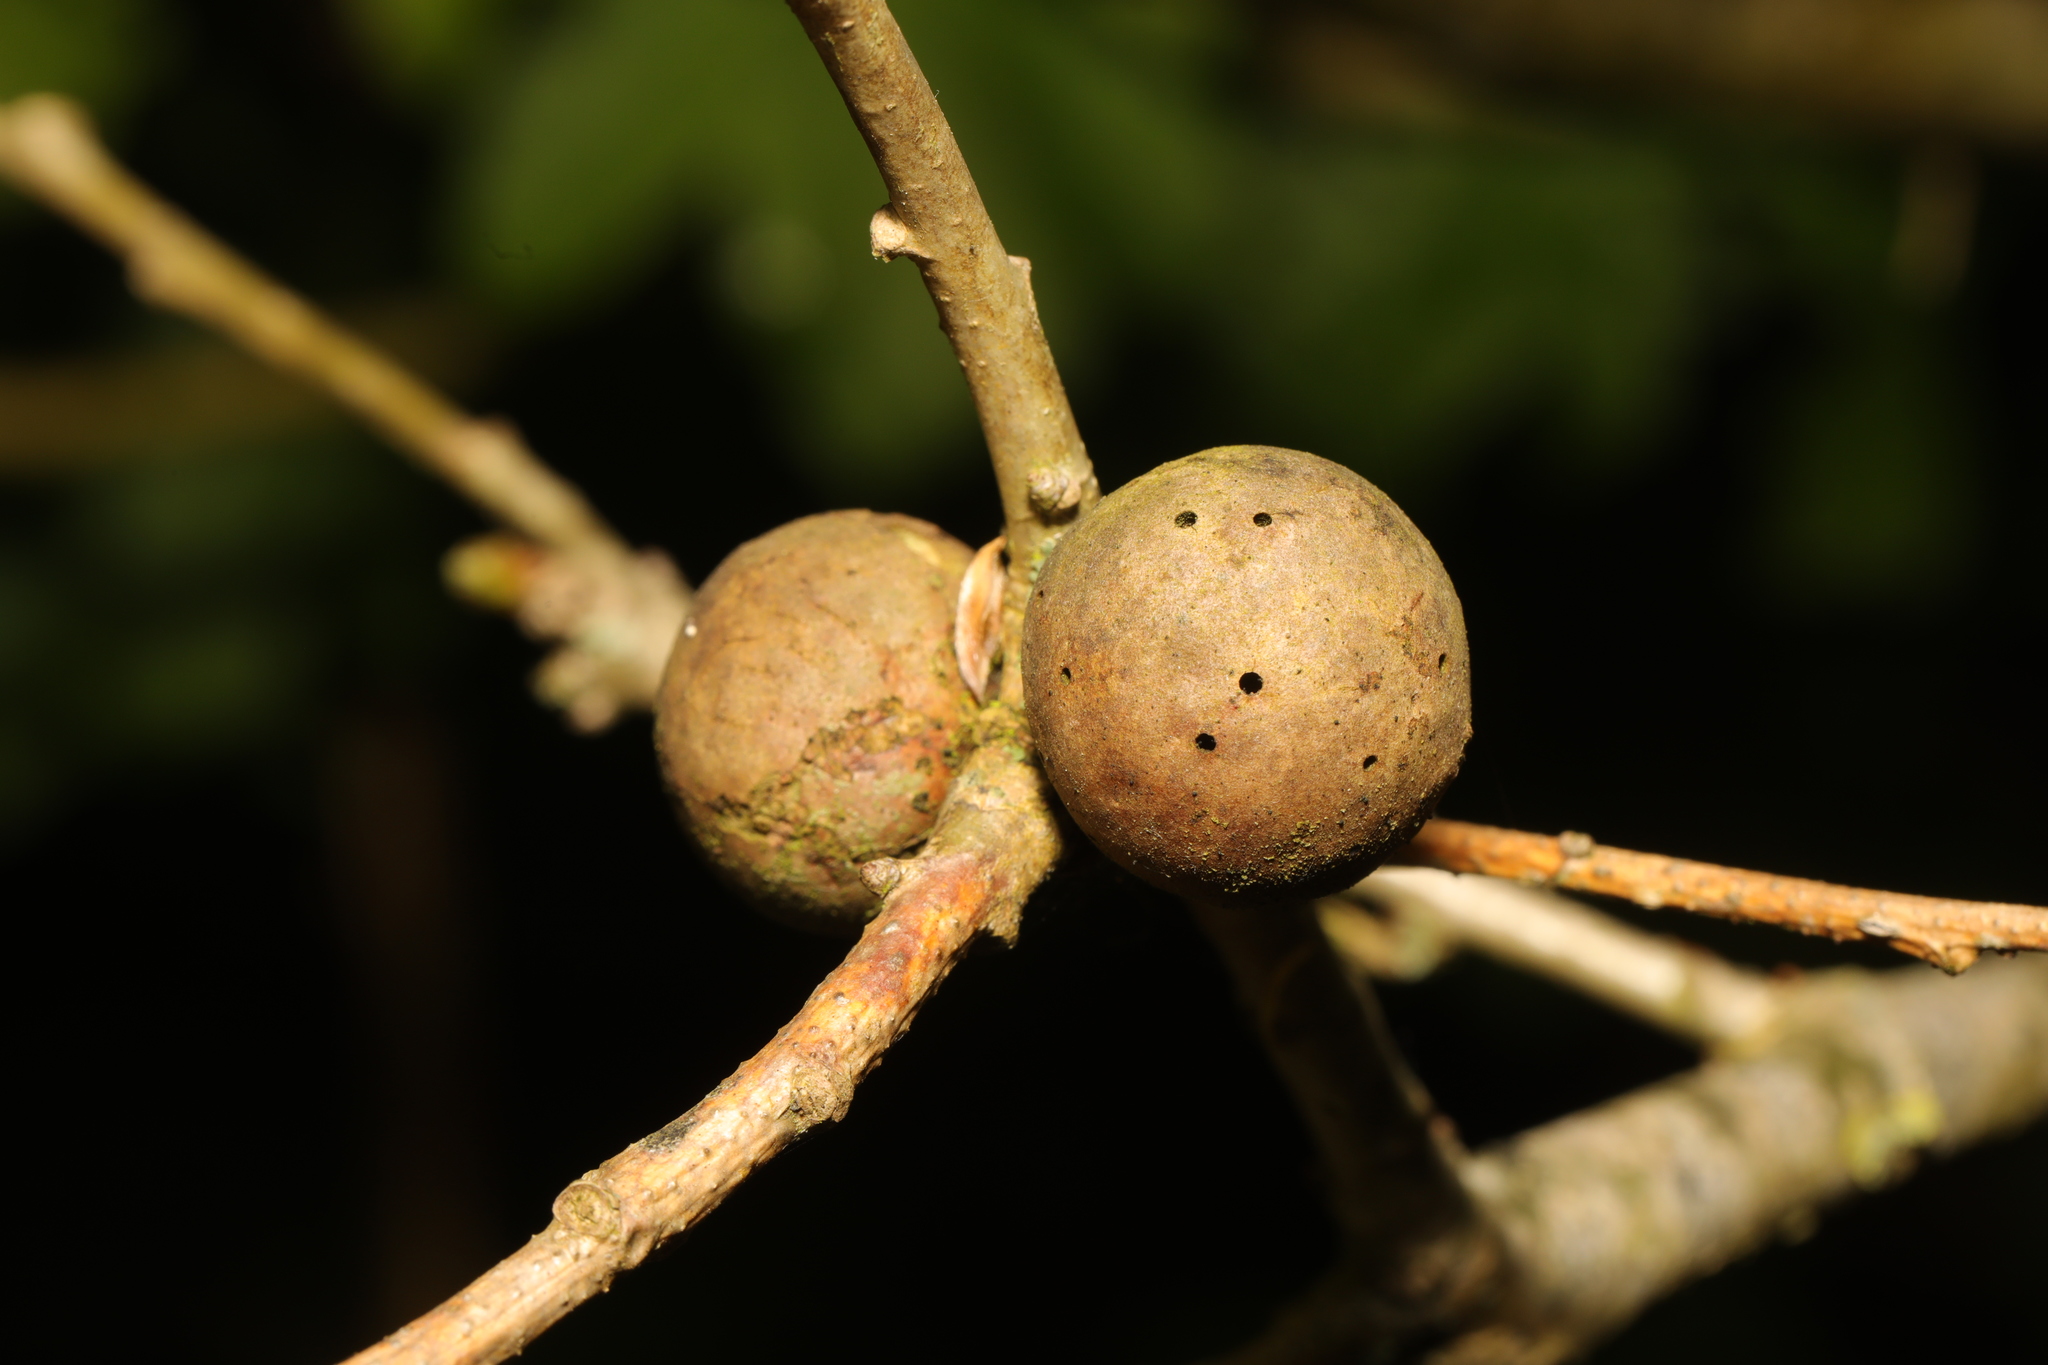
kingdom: Animalia
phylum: Arthropoda
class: Insecta
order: Hymenoptera
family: Cynipidae
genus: Andricus
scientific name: Andricus kollari
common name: Marble gall
